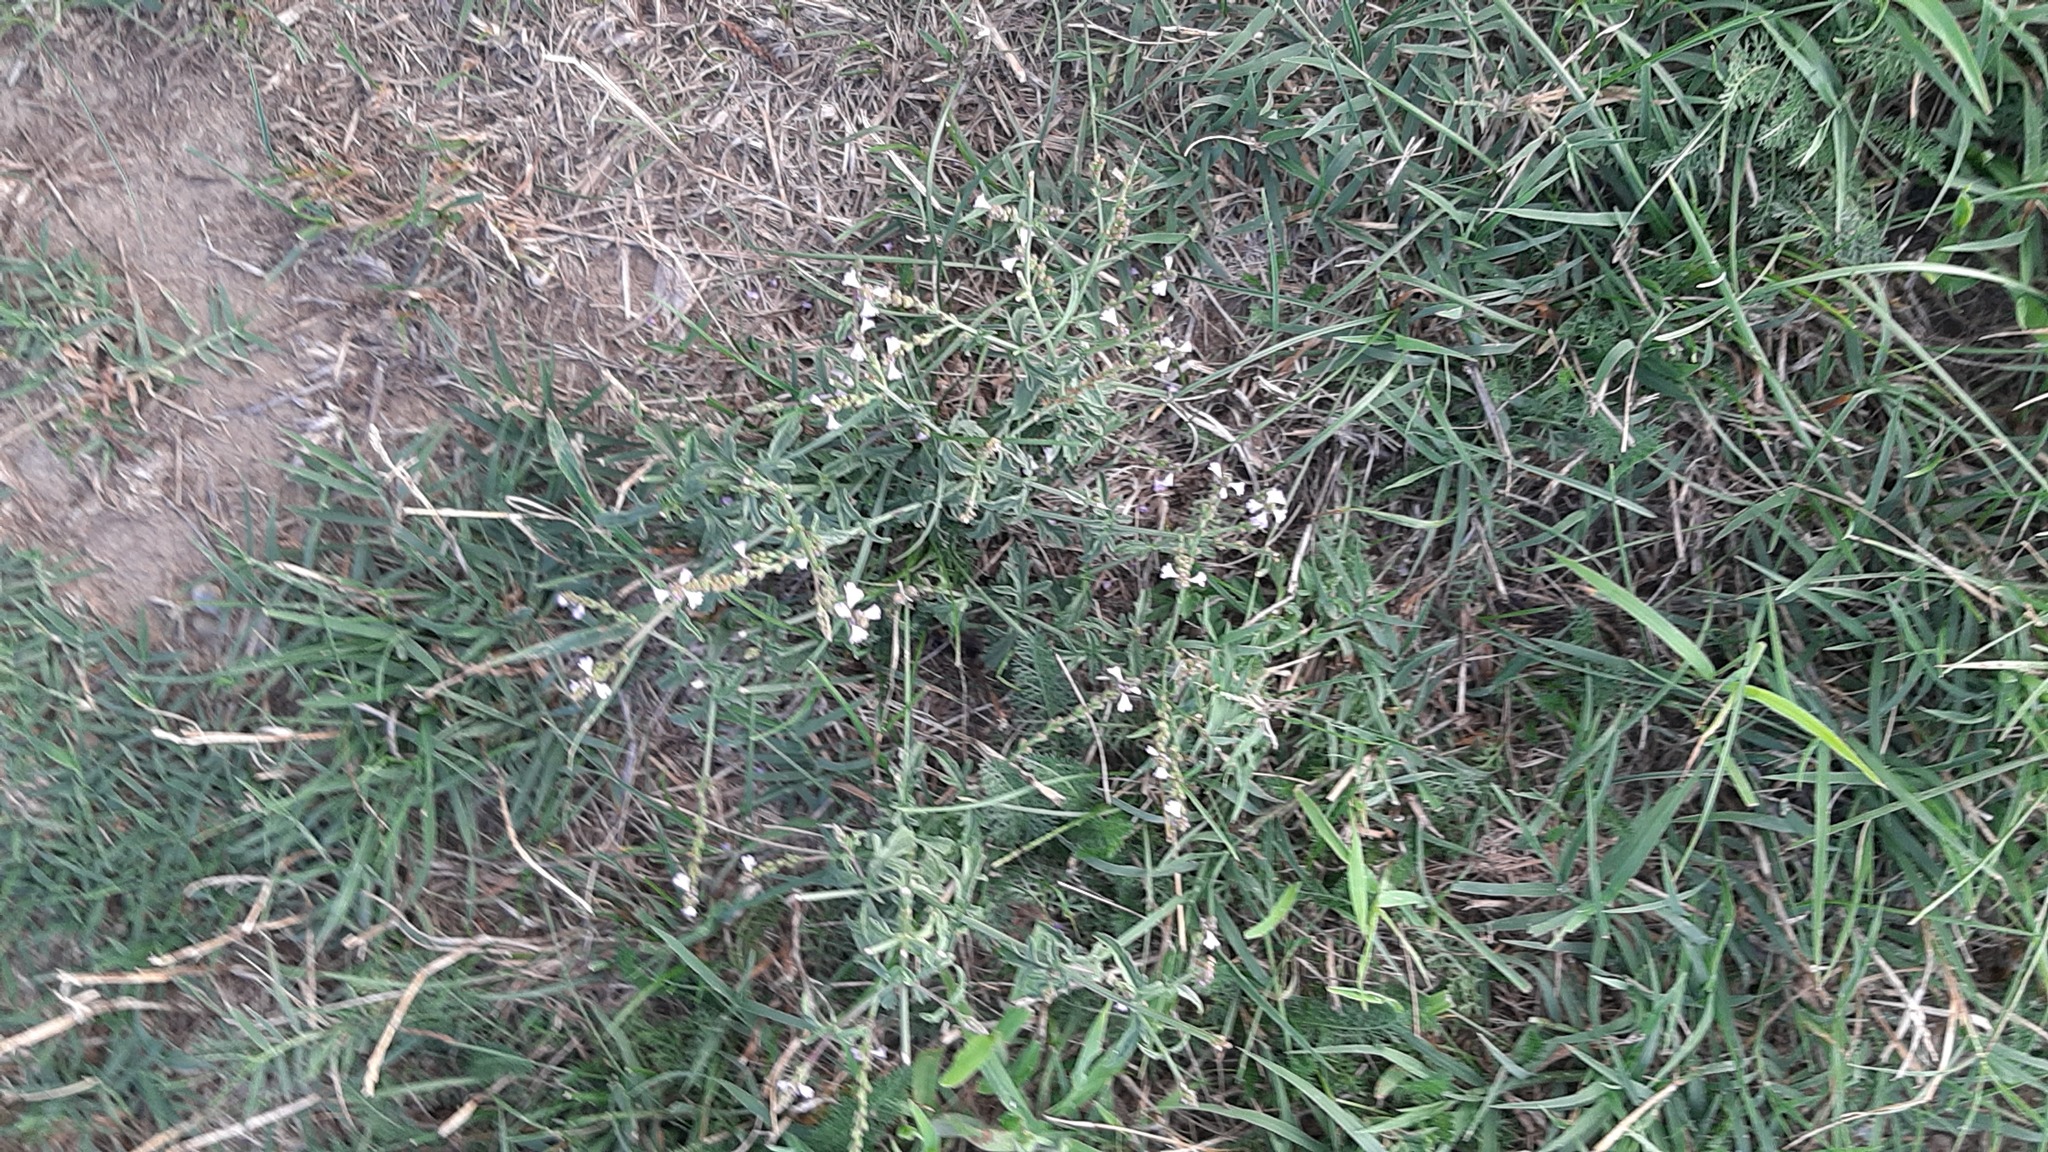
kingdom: Plantae
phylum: Tracheophyta
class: Magnoliopsida
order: Lamiales
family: Verbenaceae
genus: Verbena
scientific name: Verbena officinalis
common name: Vervain
